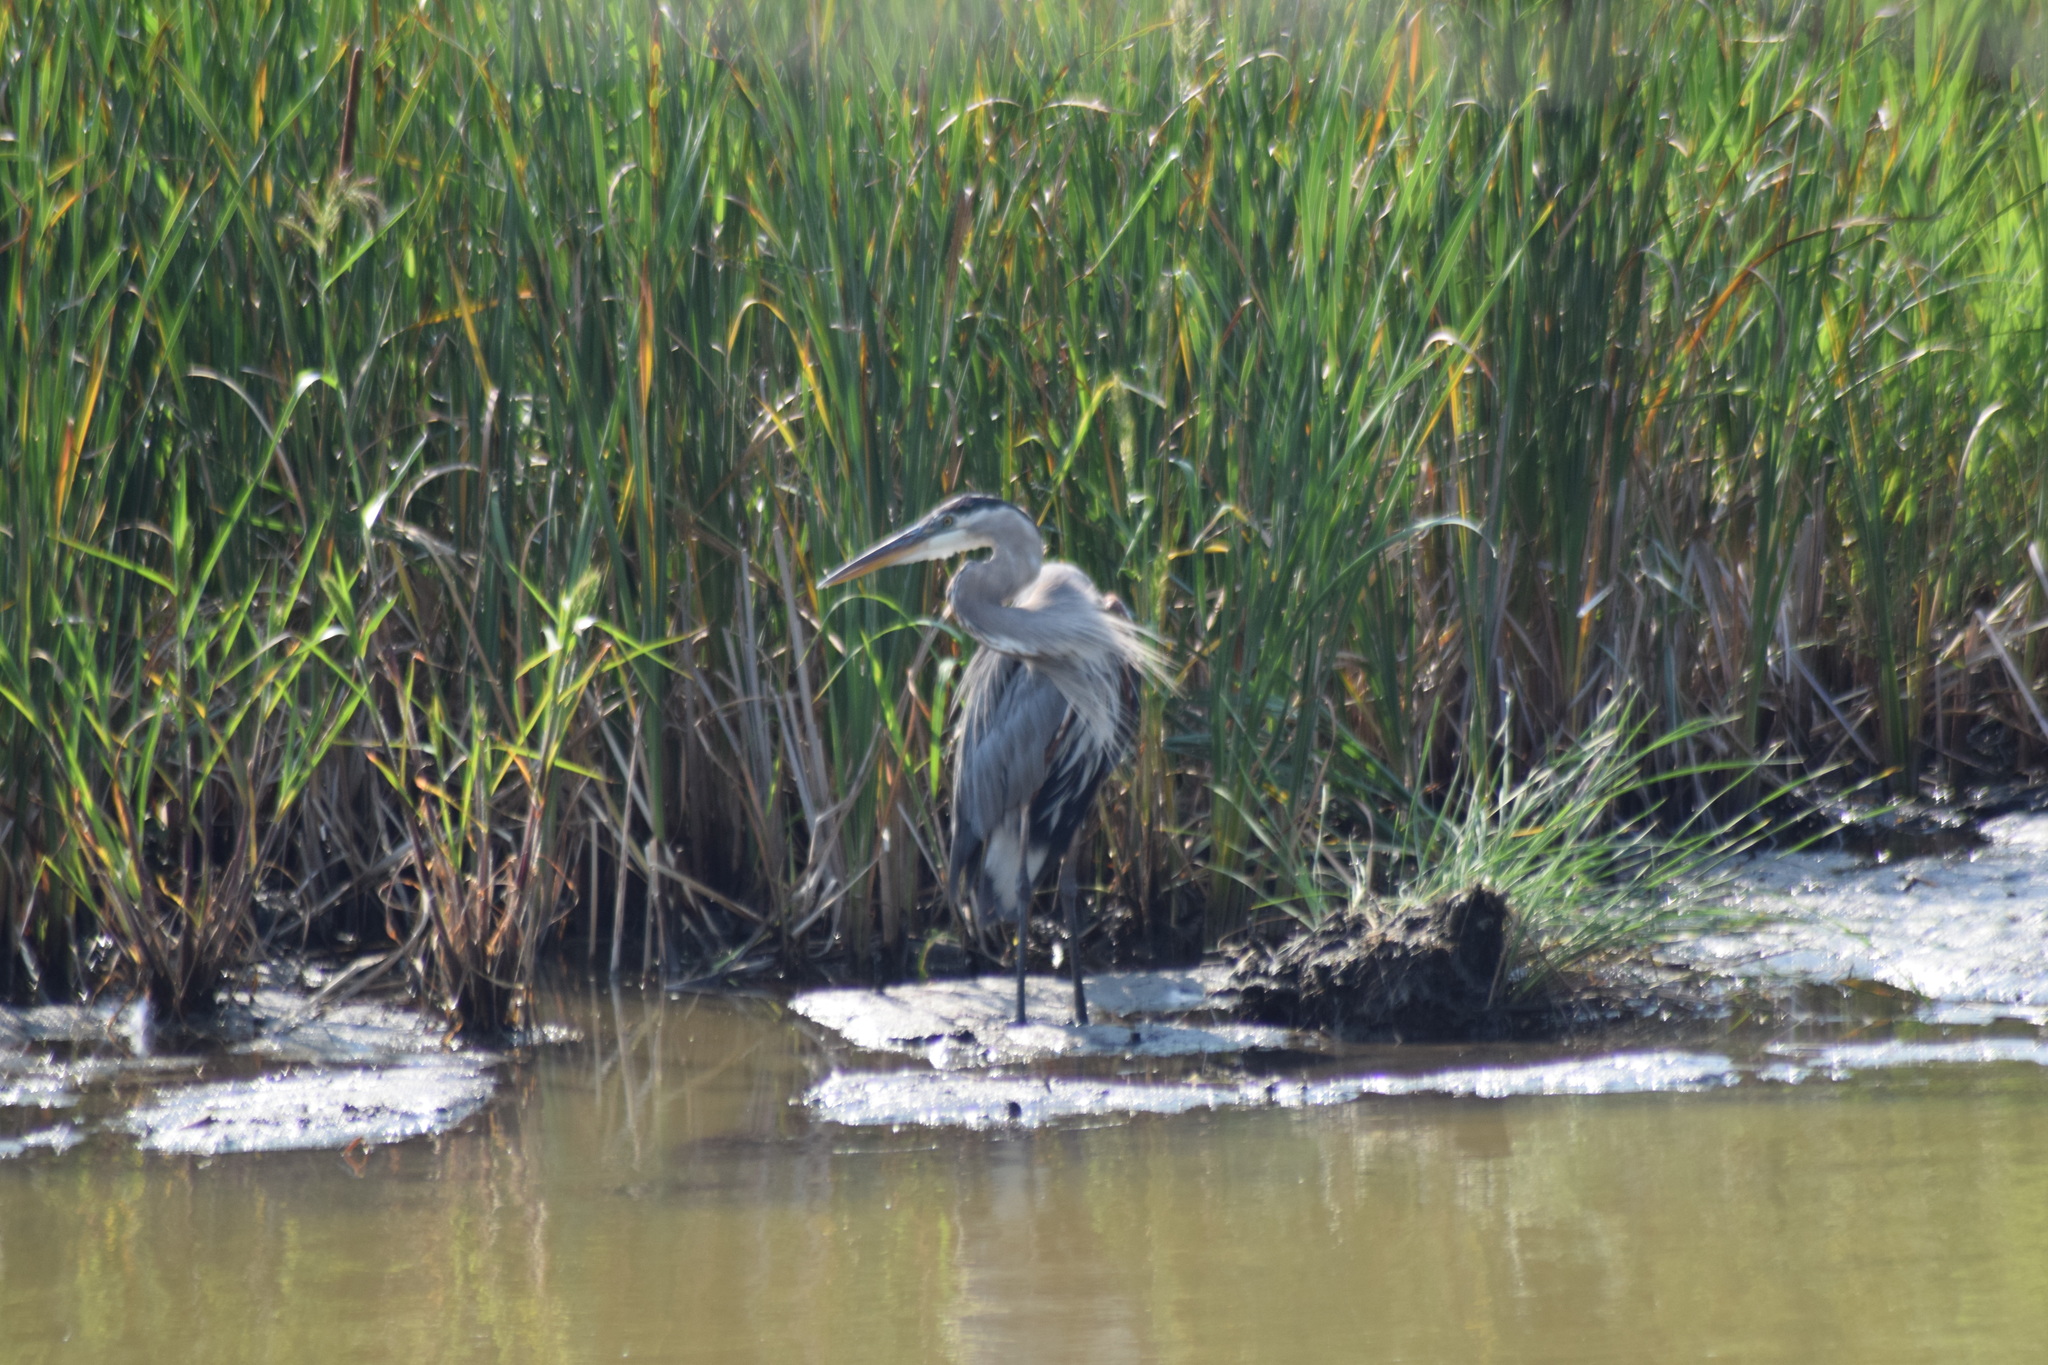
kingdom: Animalia
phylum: Chordata
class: Aves
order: Pelecaniformes
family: Ardeidae
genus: Ardea
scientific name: Ardea herodias
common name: Great blue heron
